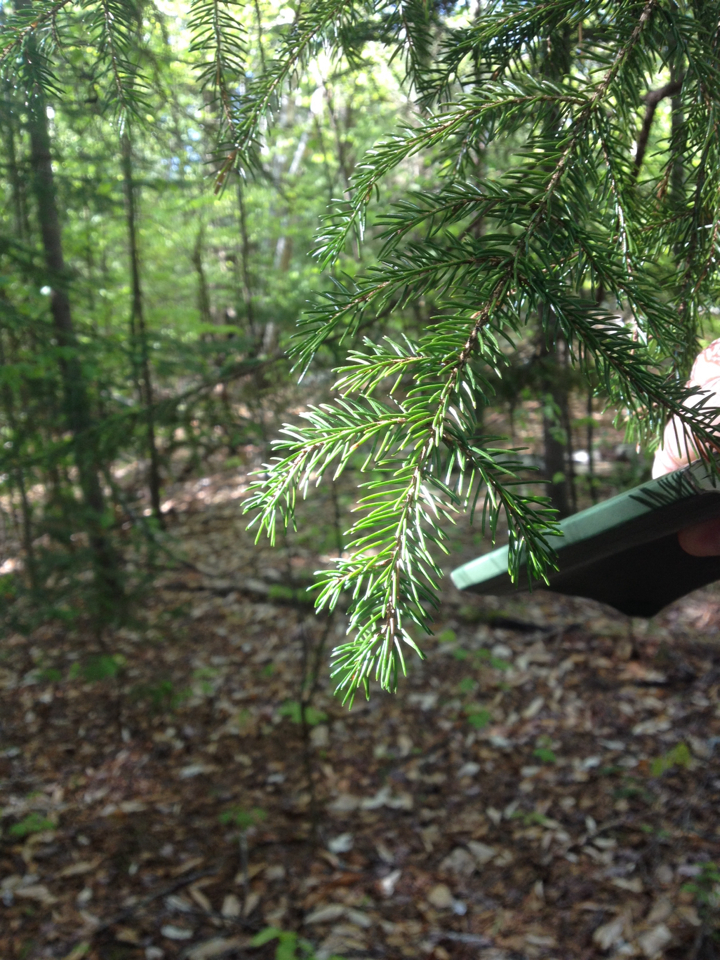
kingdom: Plantae
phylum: Tracheophyta
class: Pinopsida
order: Pinales
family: Pinaceae
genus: Picea
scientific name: Picea rubens
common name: Red spruce
